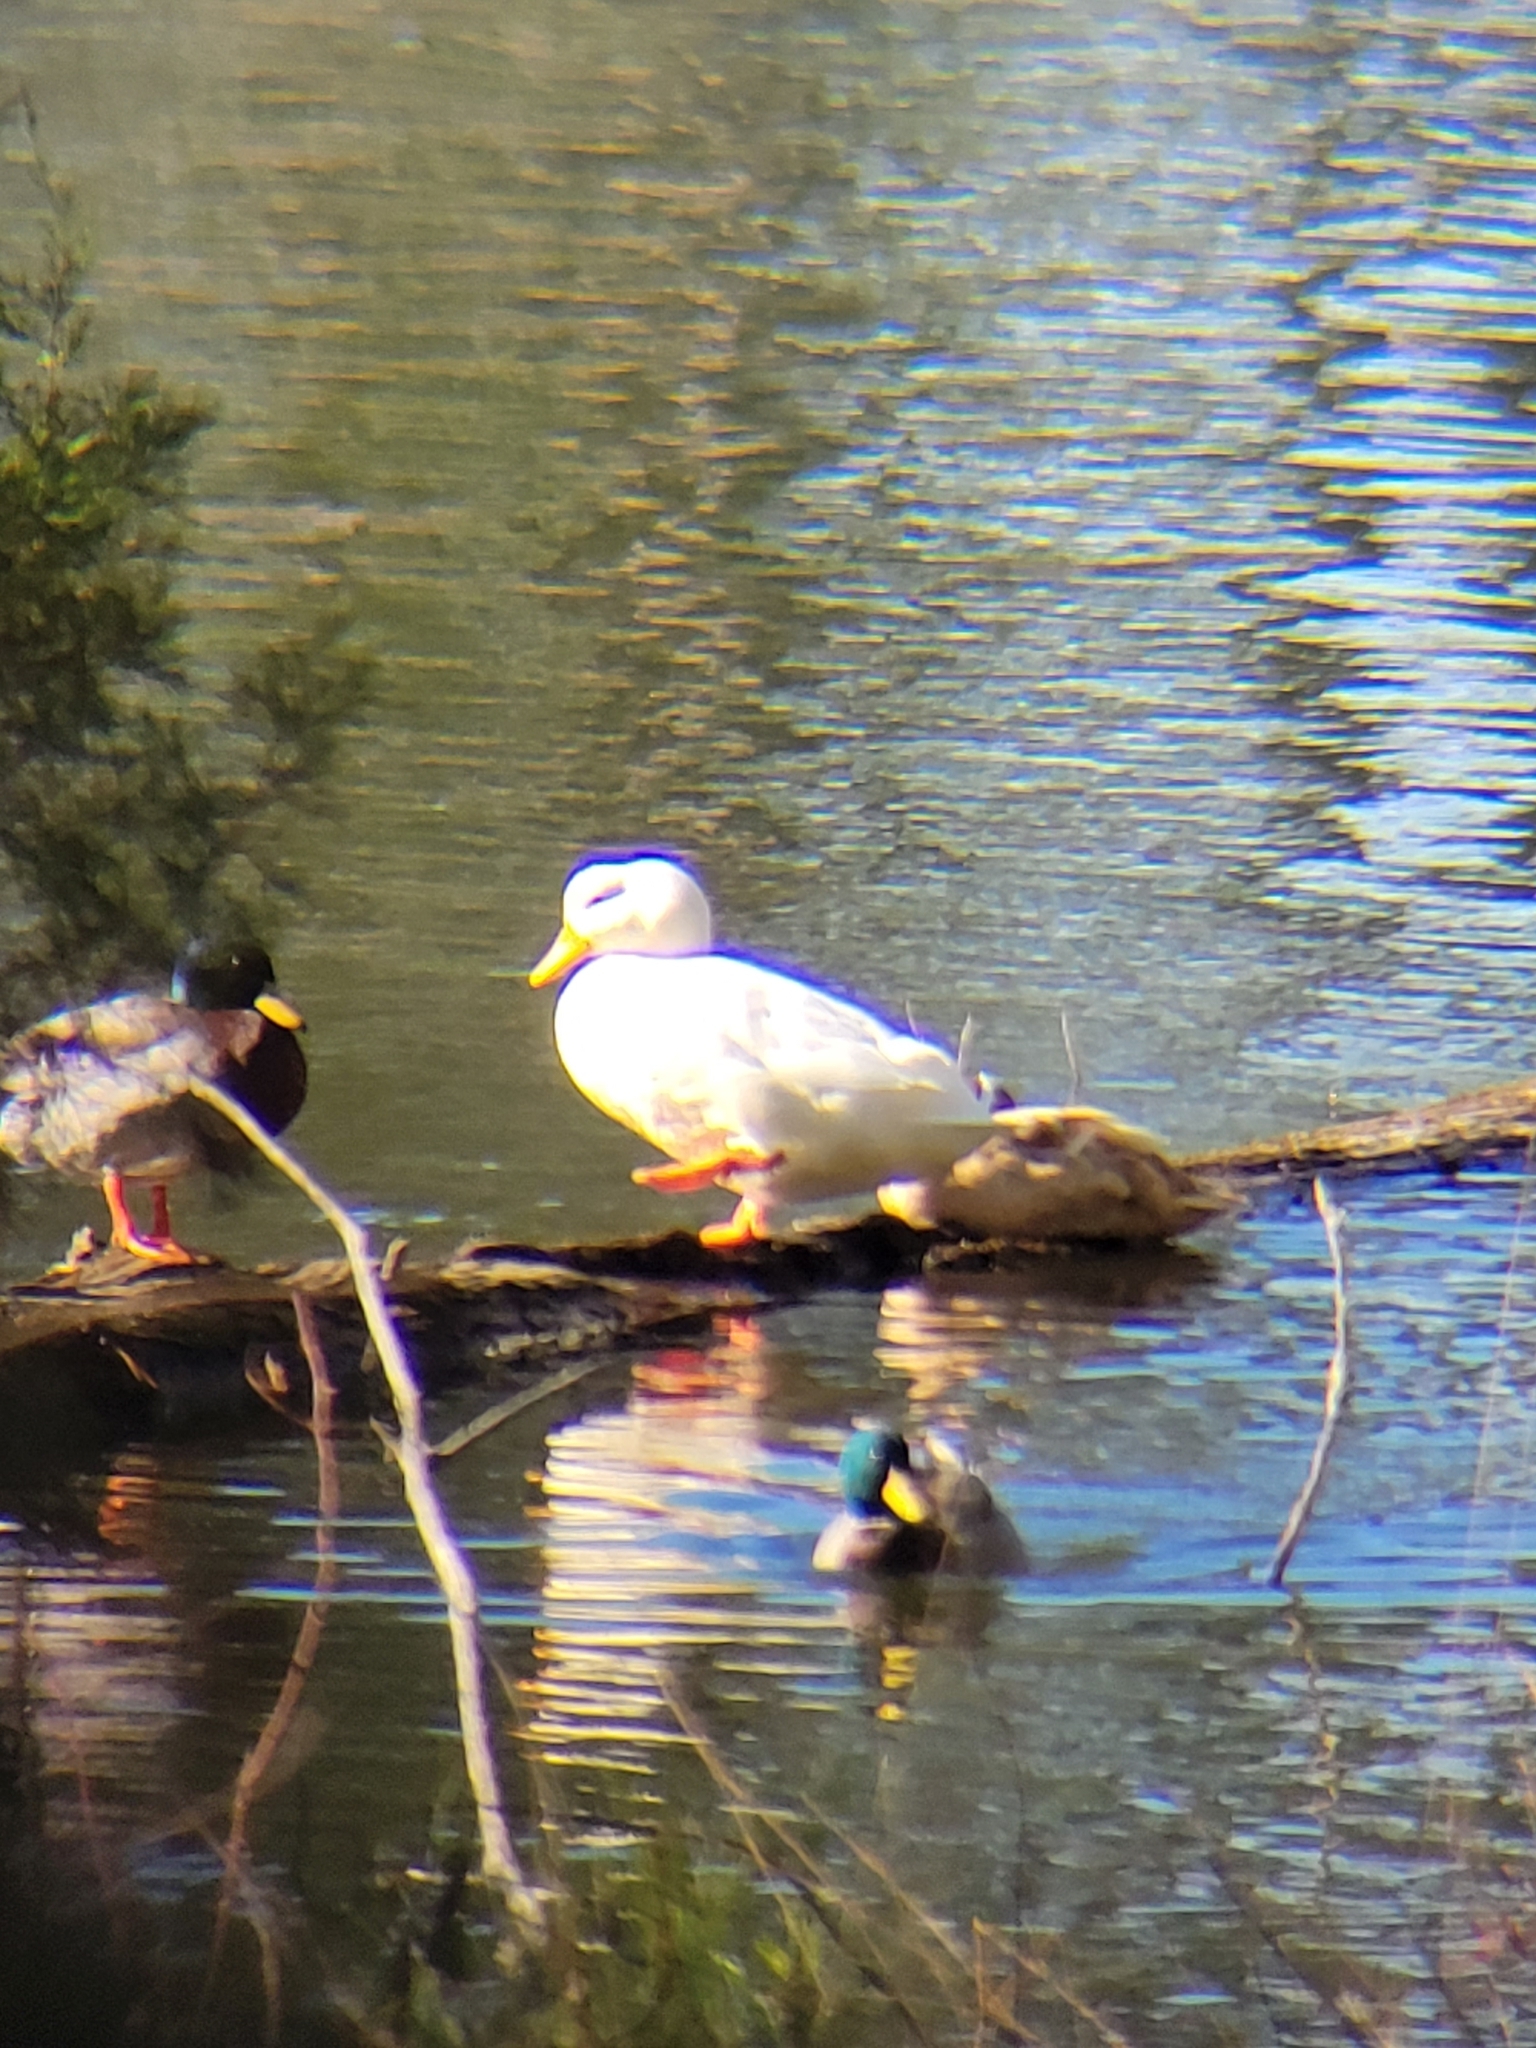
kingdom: Animalia
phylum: Chordata
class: Aves
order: Anseriformes
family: Anatidae
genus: Anas
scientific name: Anas platyrhynchos
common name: Mallard
